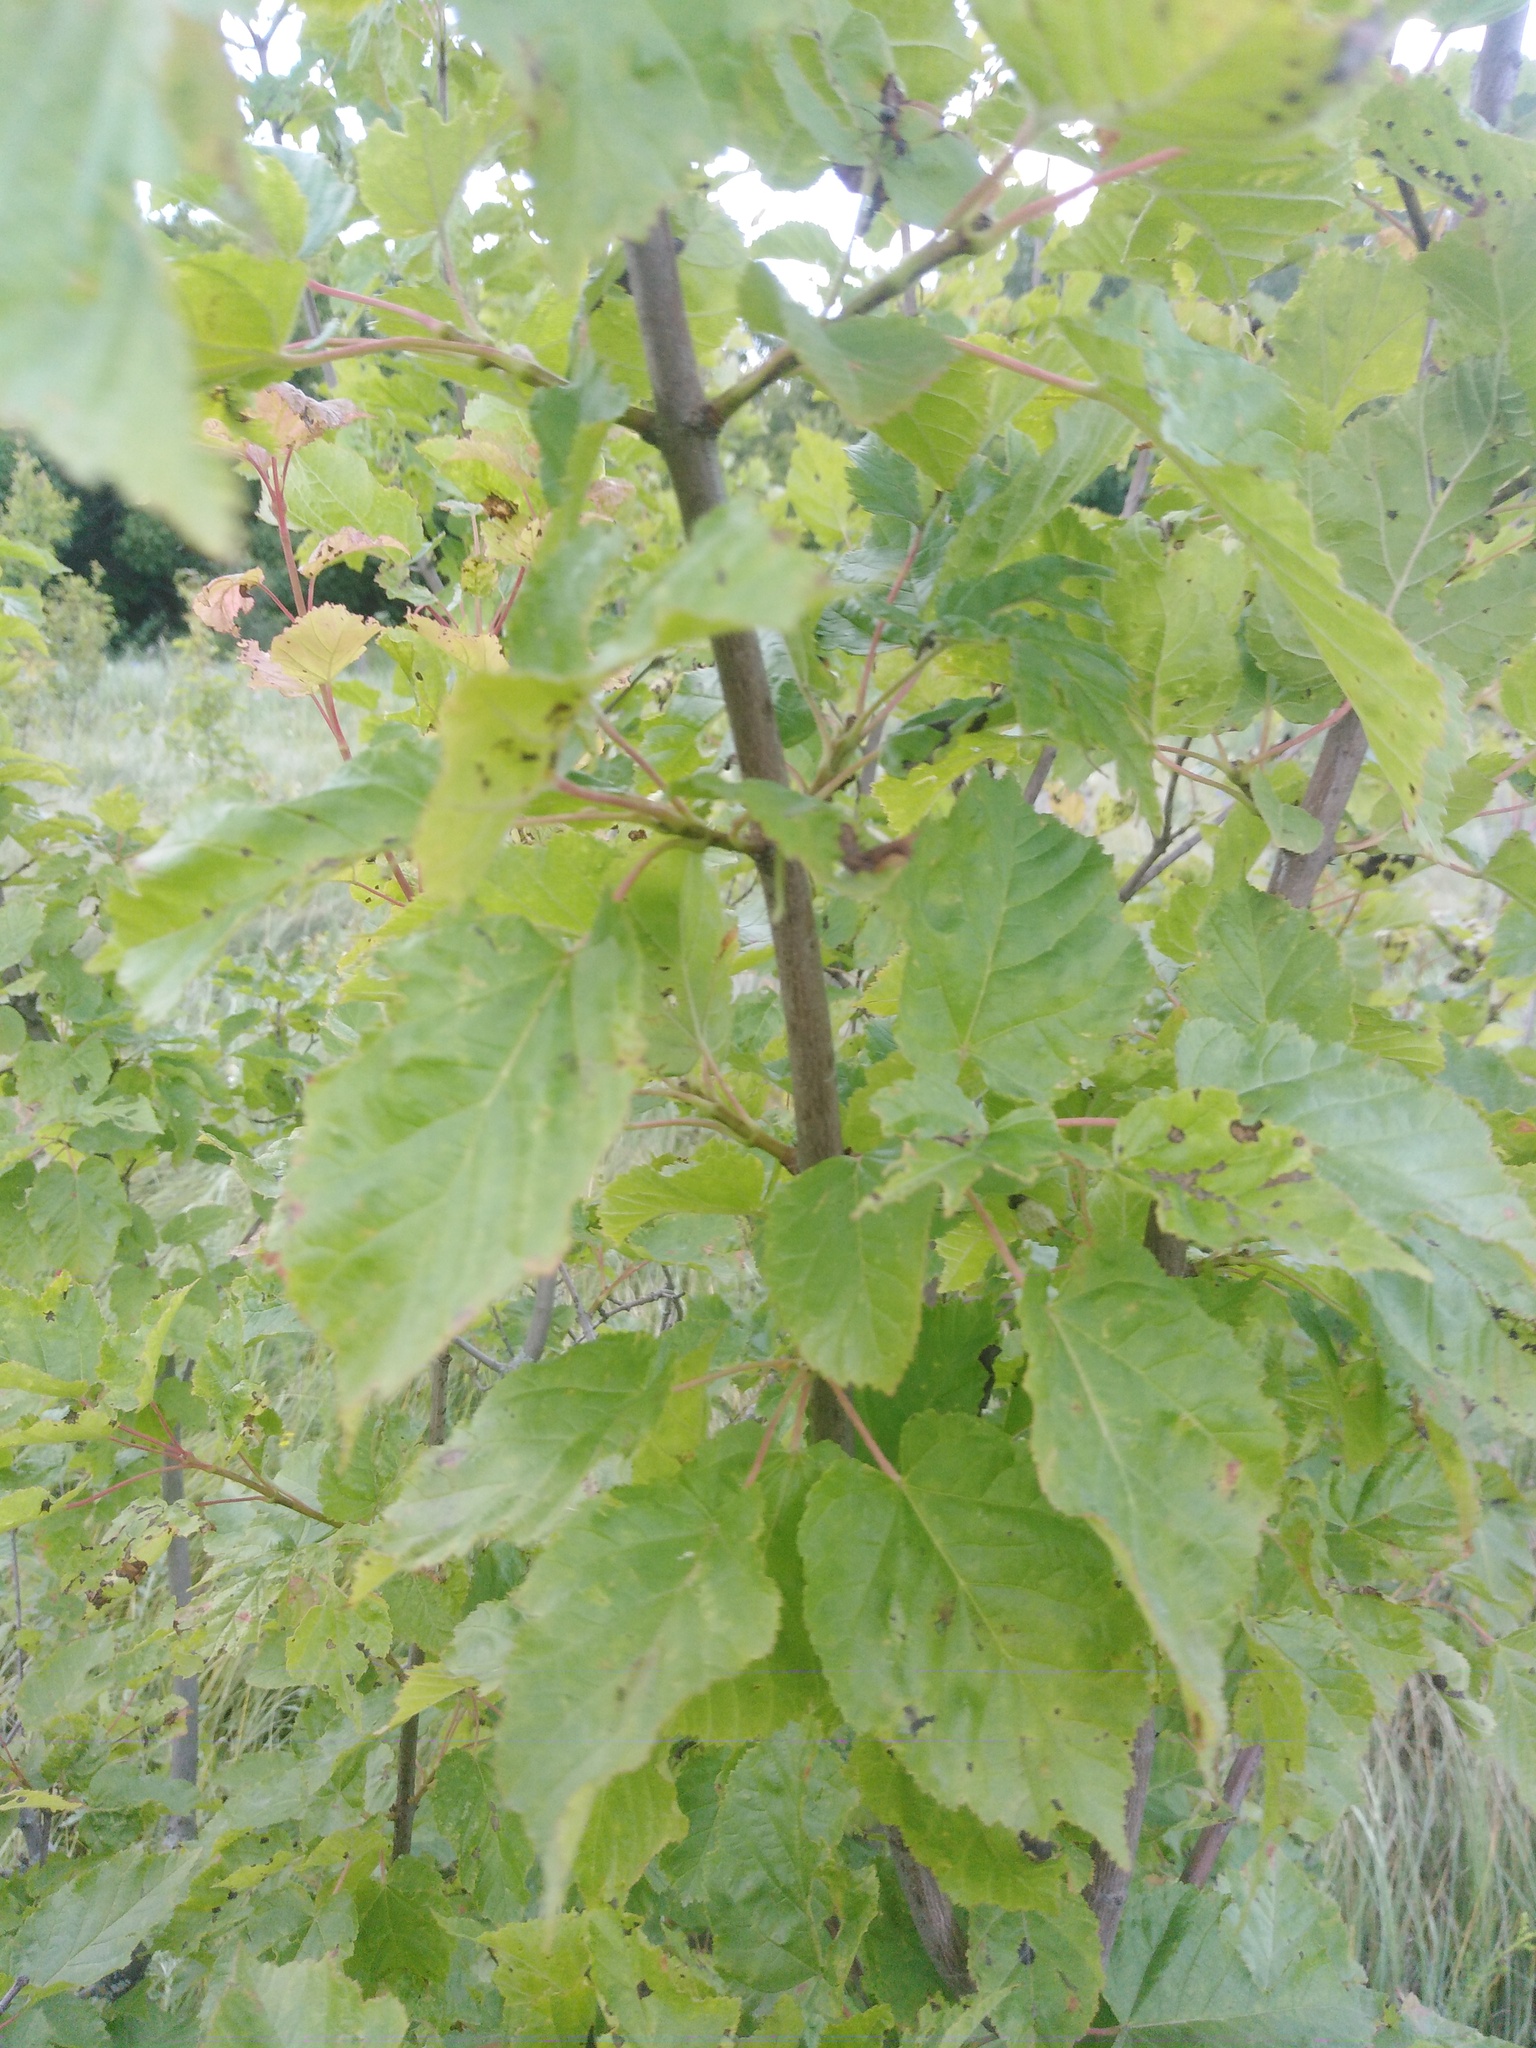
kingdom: Plantae
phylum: Tracheophyta
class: Magnoliopsida
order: Sapindales
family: Sapindaceae
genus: Acer
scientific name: Acer tataricum
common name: Tartar maple
